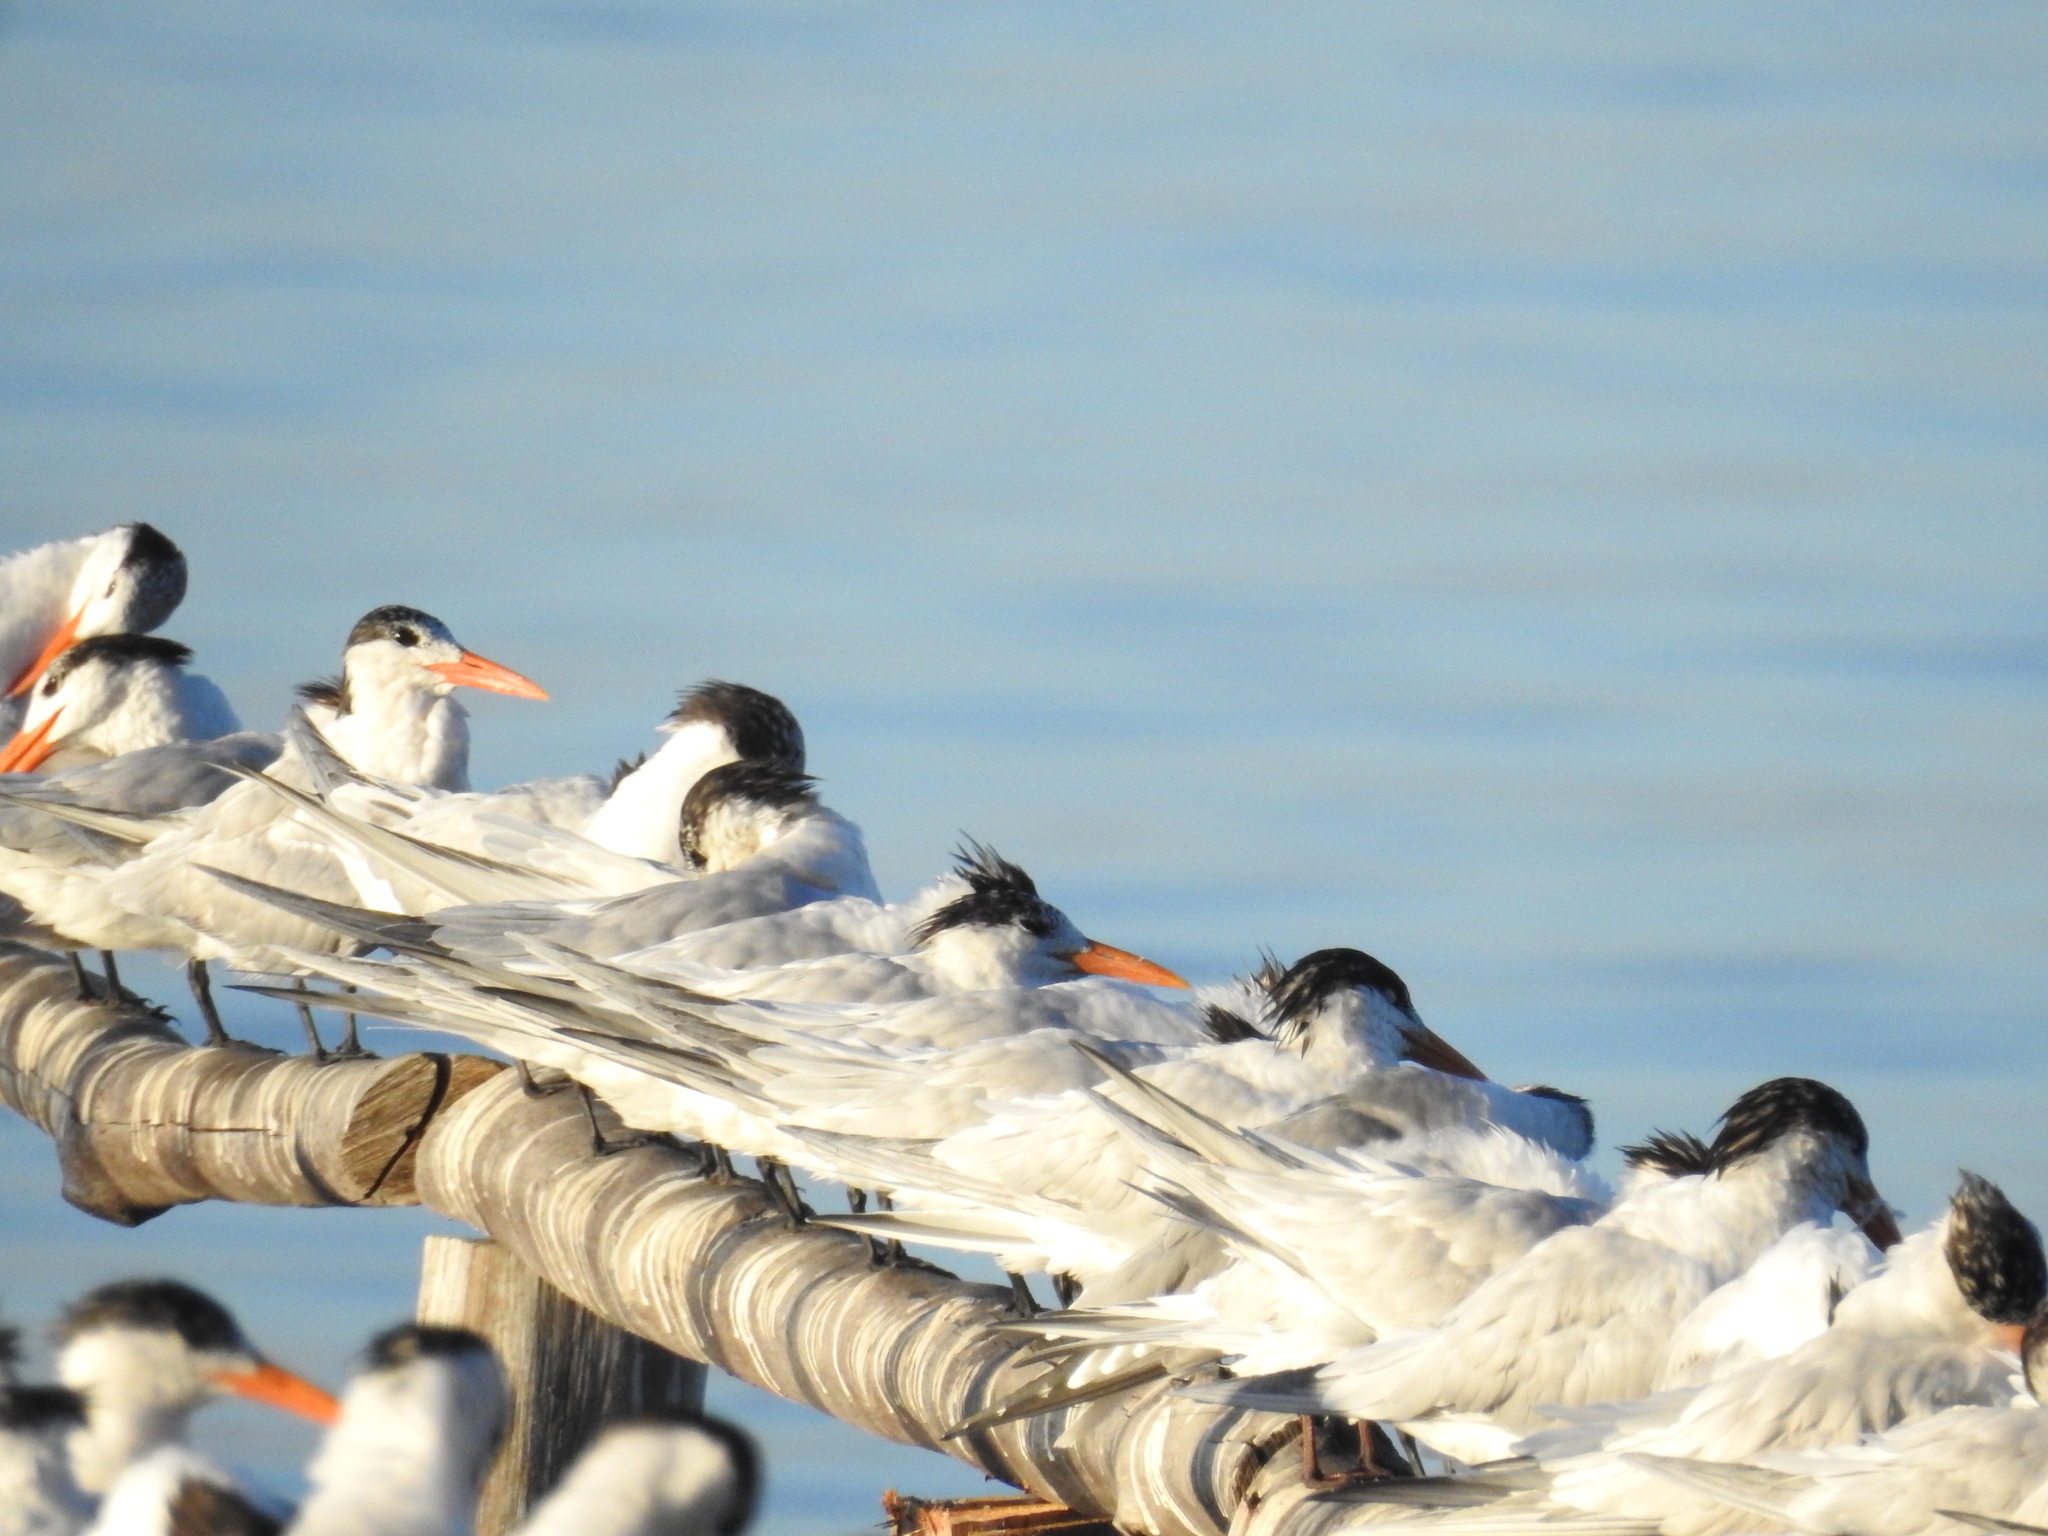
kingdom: Animalia
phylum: Chordata
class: Aves
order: Charadriiformes
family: Laridae
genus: Thalasseus
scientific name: Thalasseus maximus
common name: Royal tern
